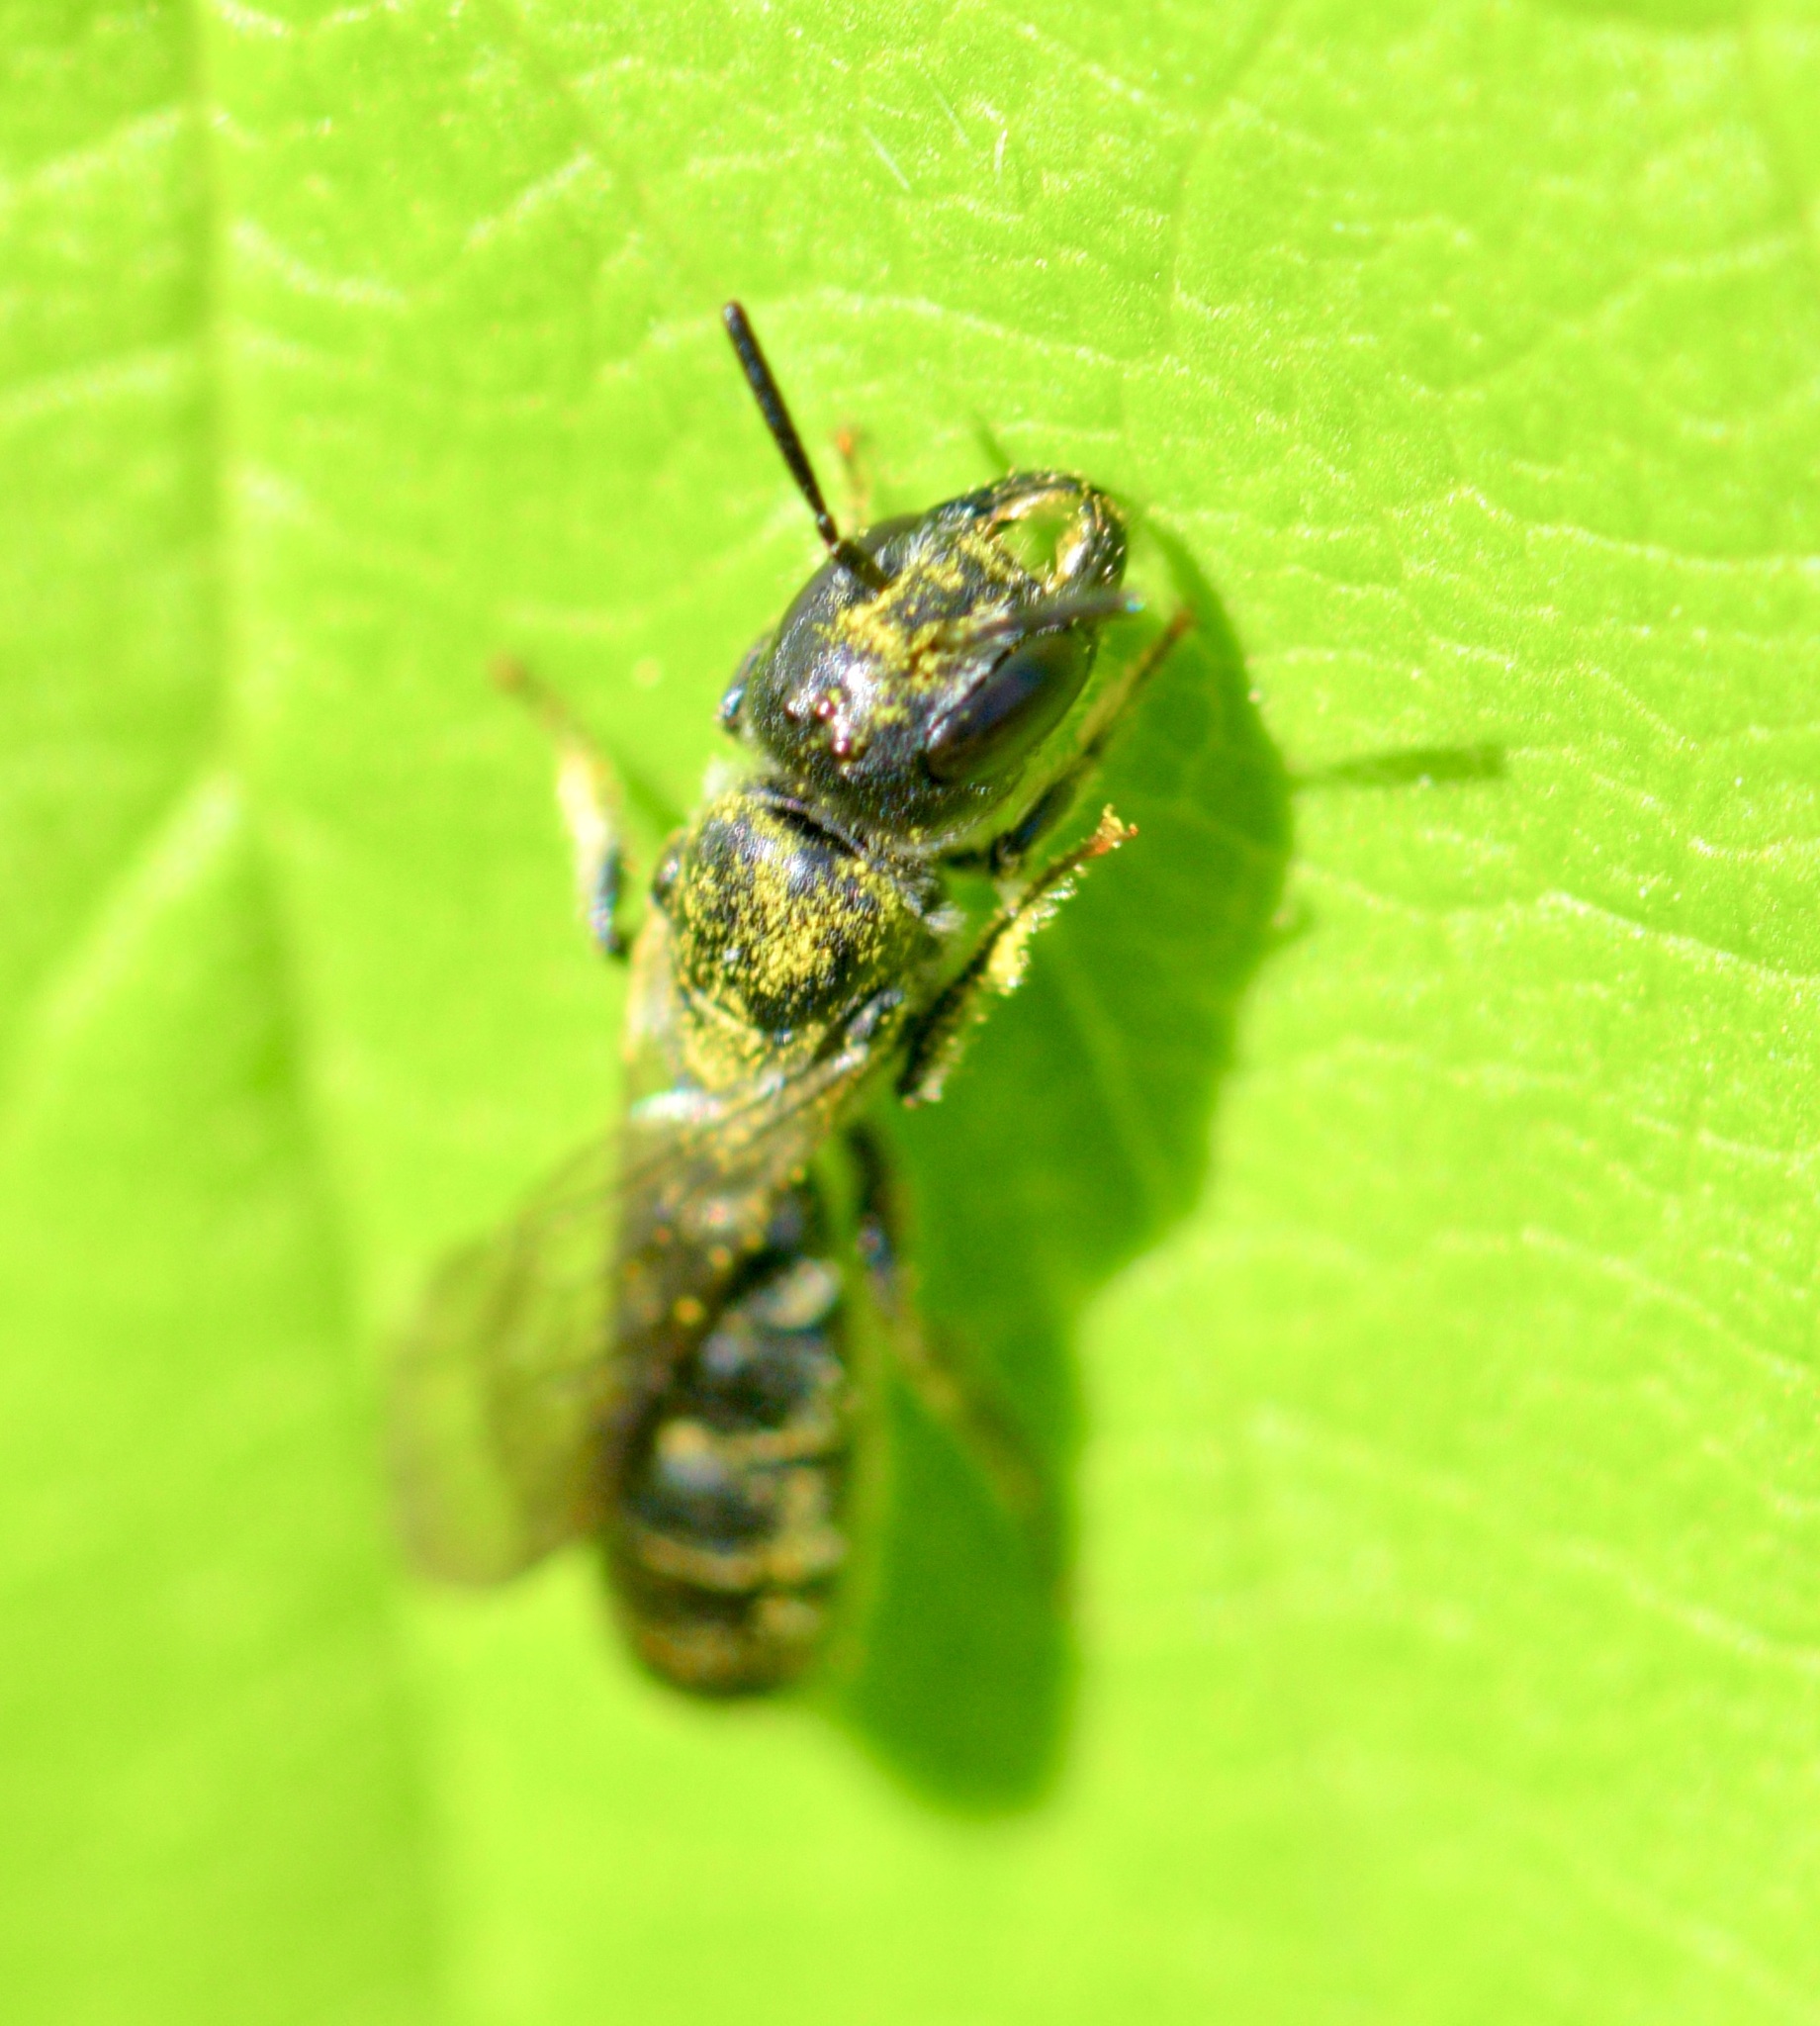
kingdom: Animalia
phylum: Arthropoda
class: Insecta
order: Hymenoptera
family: Megachilidae
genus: Chelostoma
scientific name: Chelostoma philadelphi
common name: Mock-orange scissor bee
